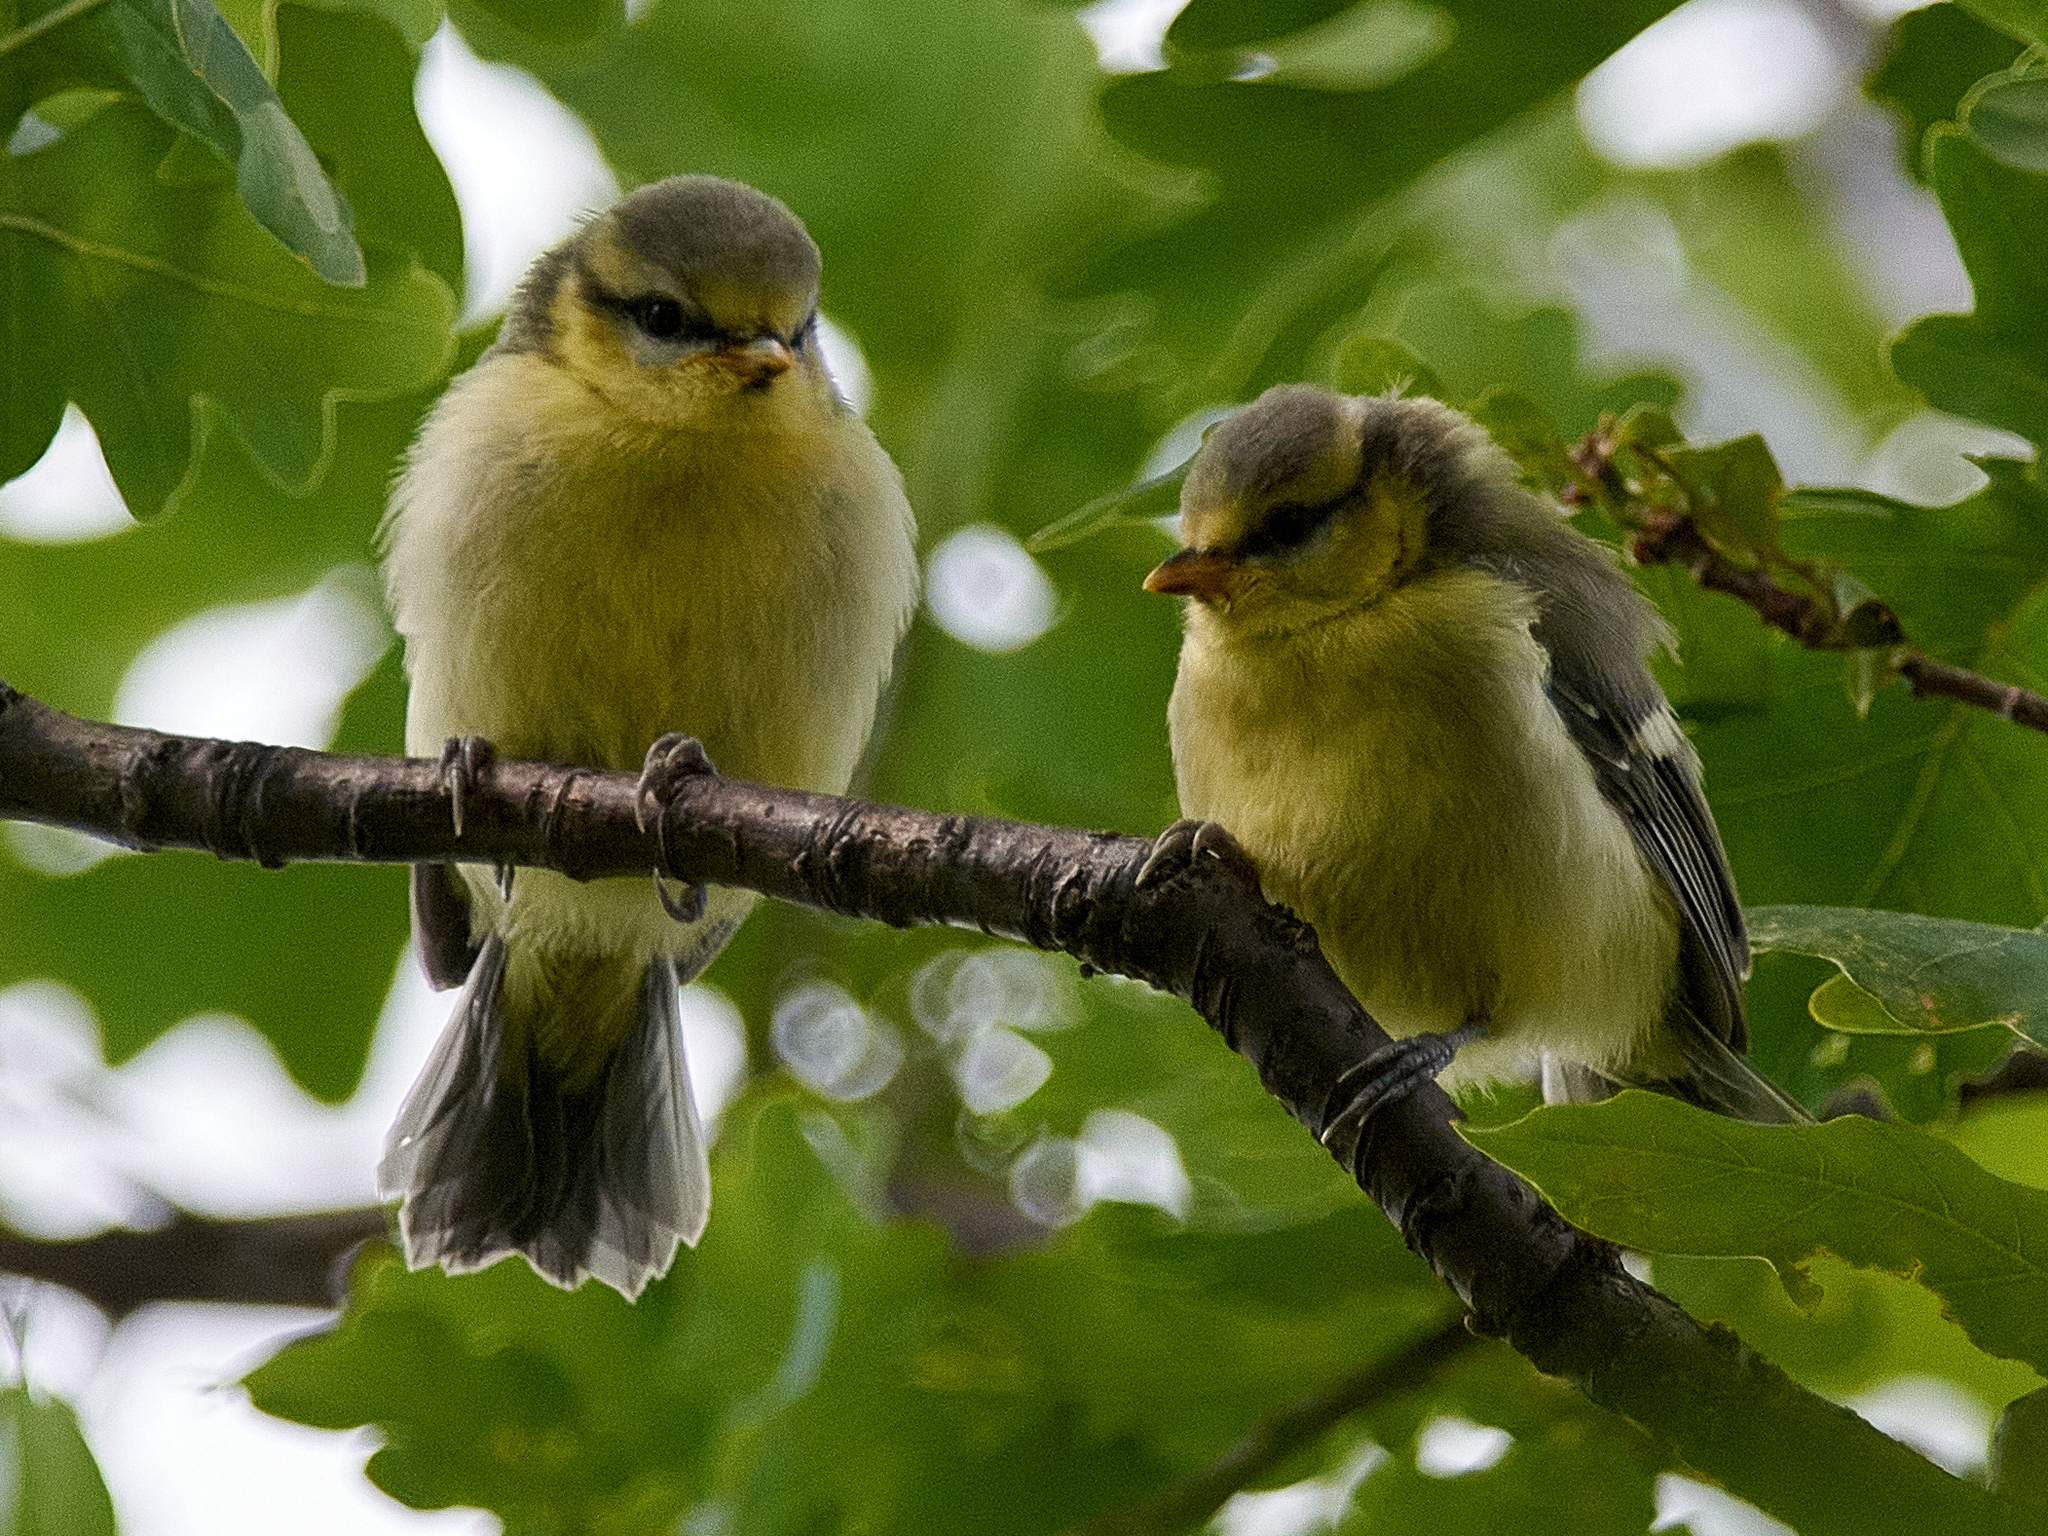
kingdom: Animalia
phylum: Chordata
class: Aves
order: Passeriformes
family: Paridae
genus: Cyanistes
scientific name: Cyanistes caeruleus
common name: Eurasian blue tit
